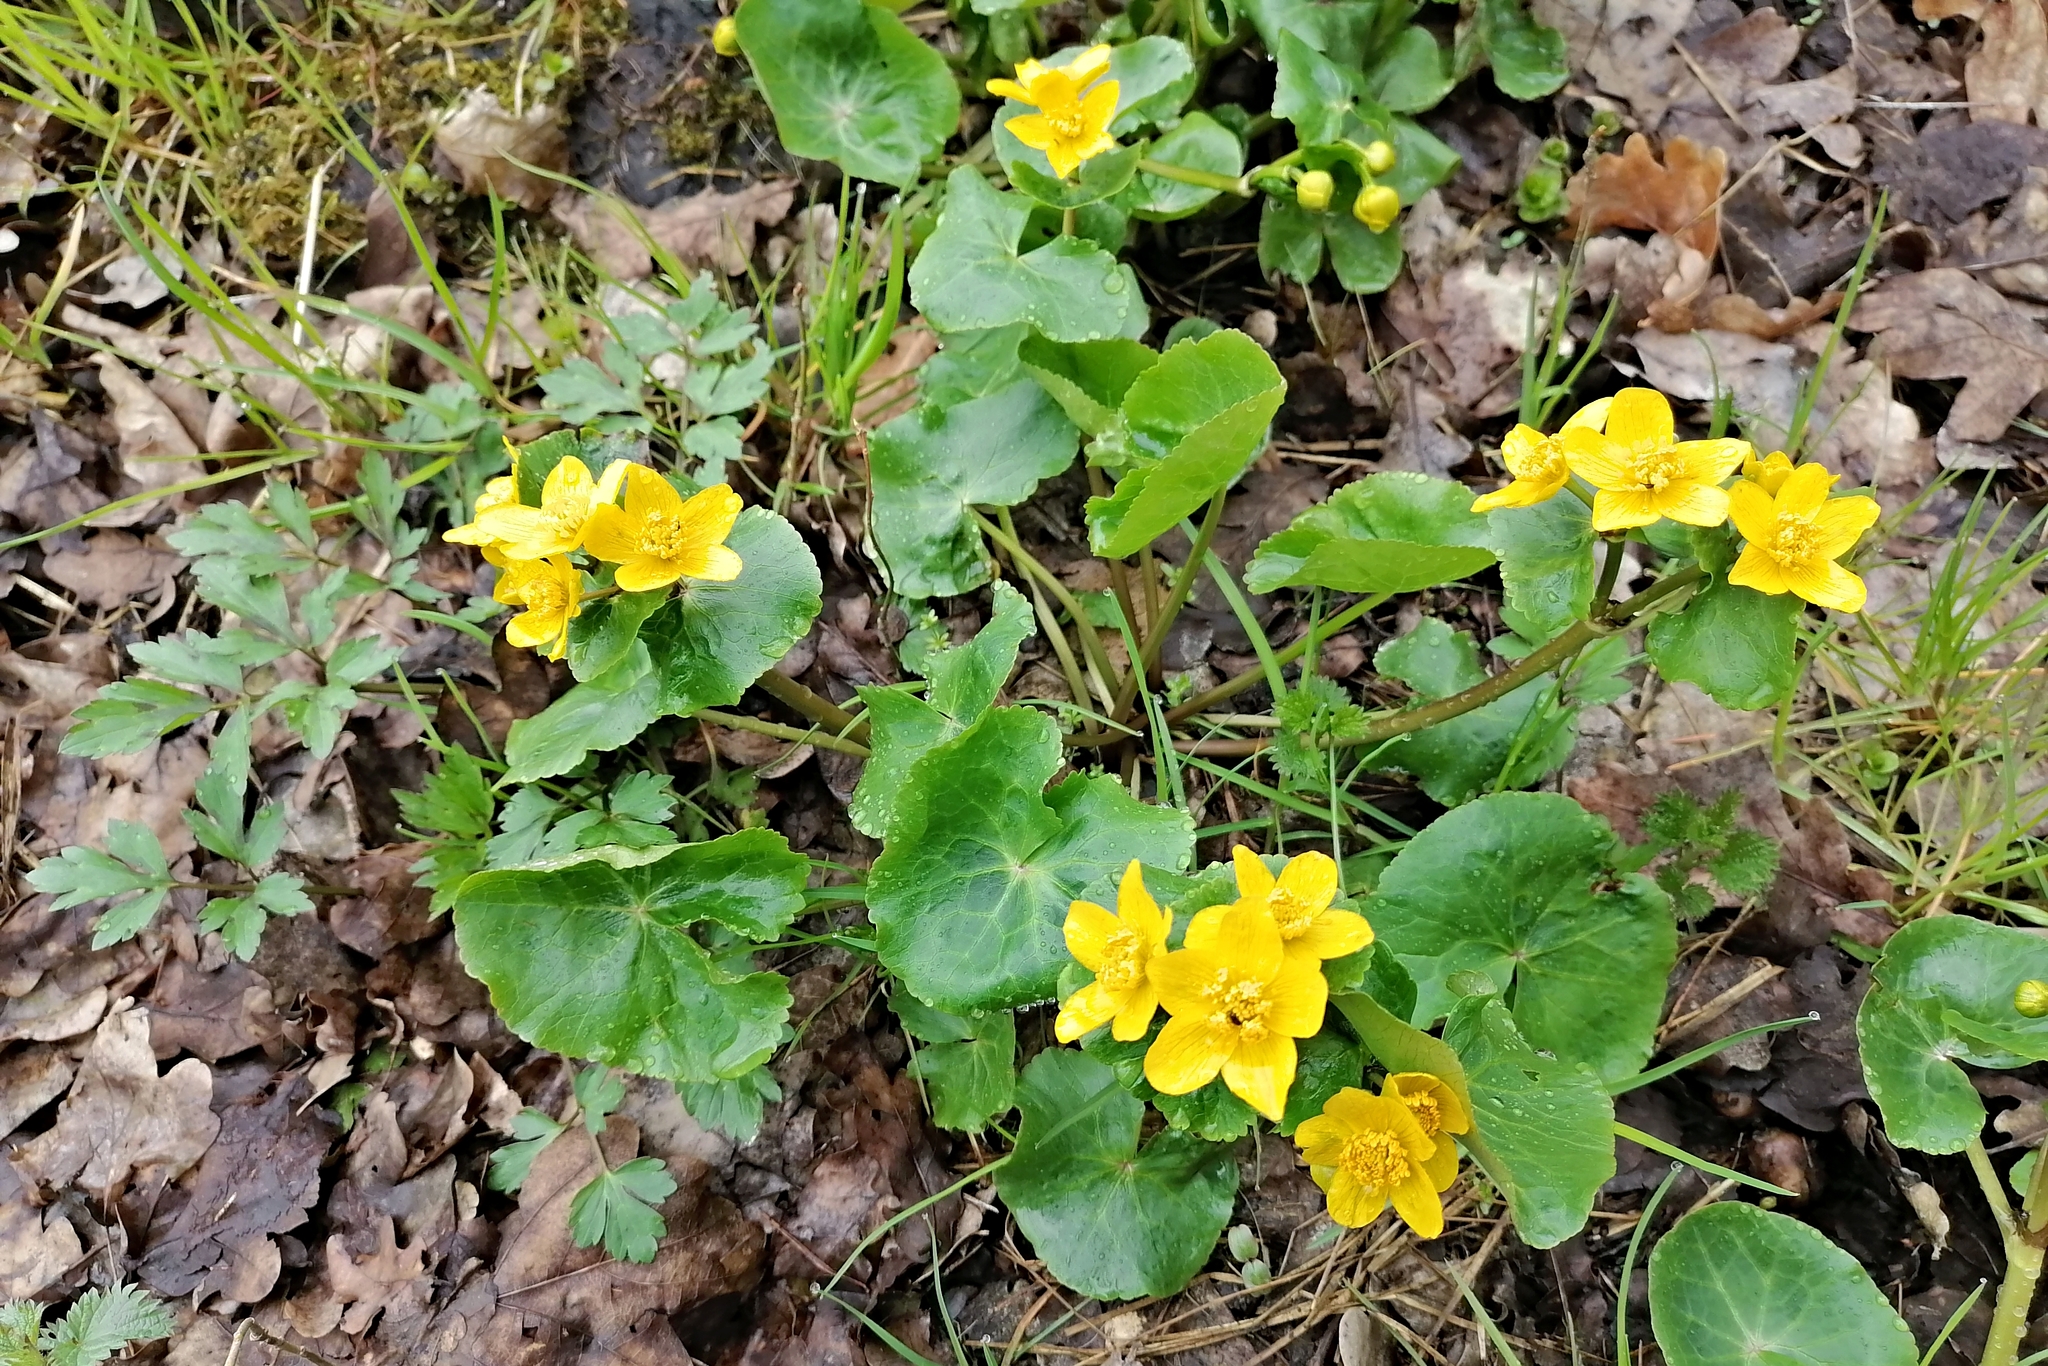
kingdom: Plantae
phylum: Tracheophyta
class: Magnoliopsida
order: Ranunculales
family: Ranunculaceae
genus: Caltha
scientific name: Caltha palustris
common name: Marsh marigold
